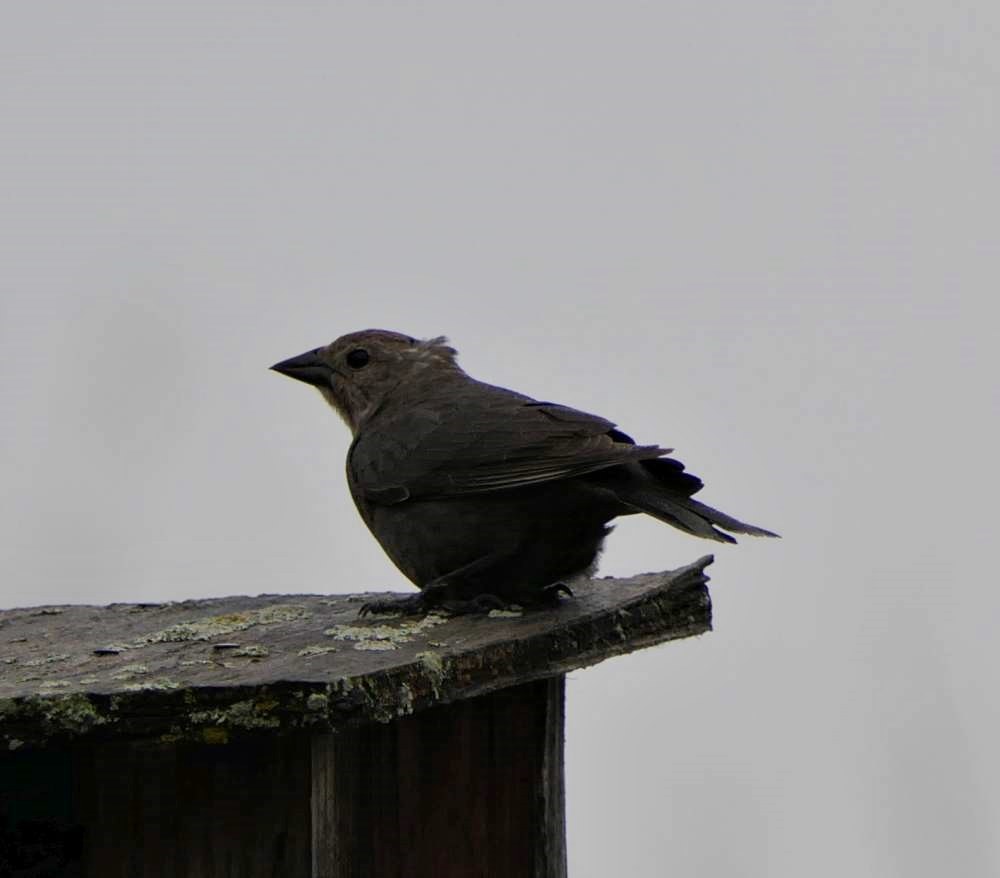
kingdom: Animalia
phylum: Chordata
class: Aves
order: Passeriformes
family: Icteridae
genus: Molothrus
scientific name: Molothrus ater
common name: Brown-headed cowbird
